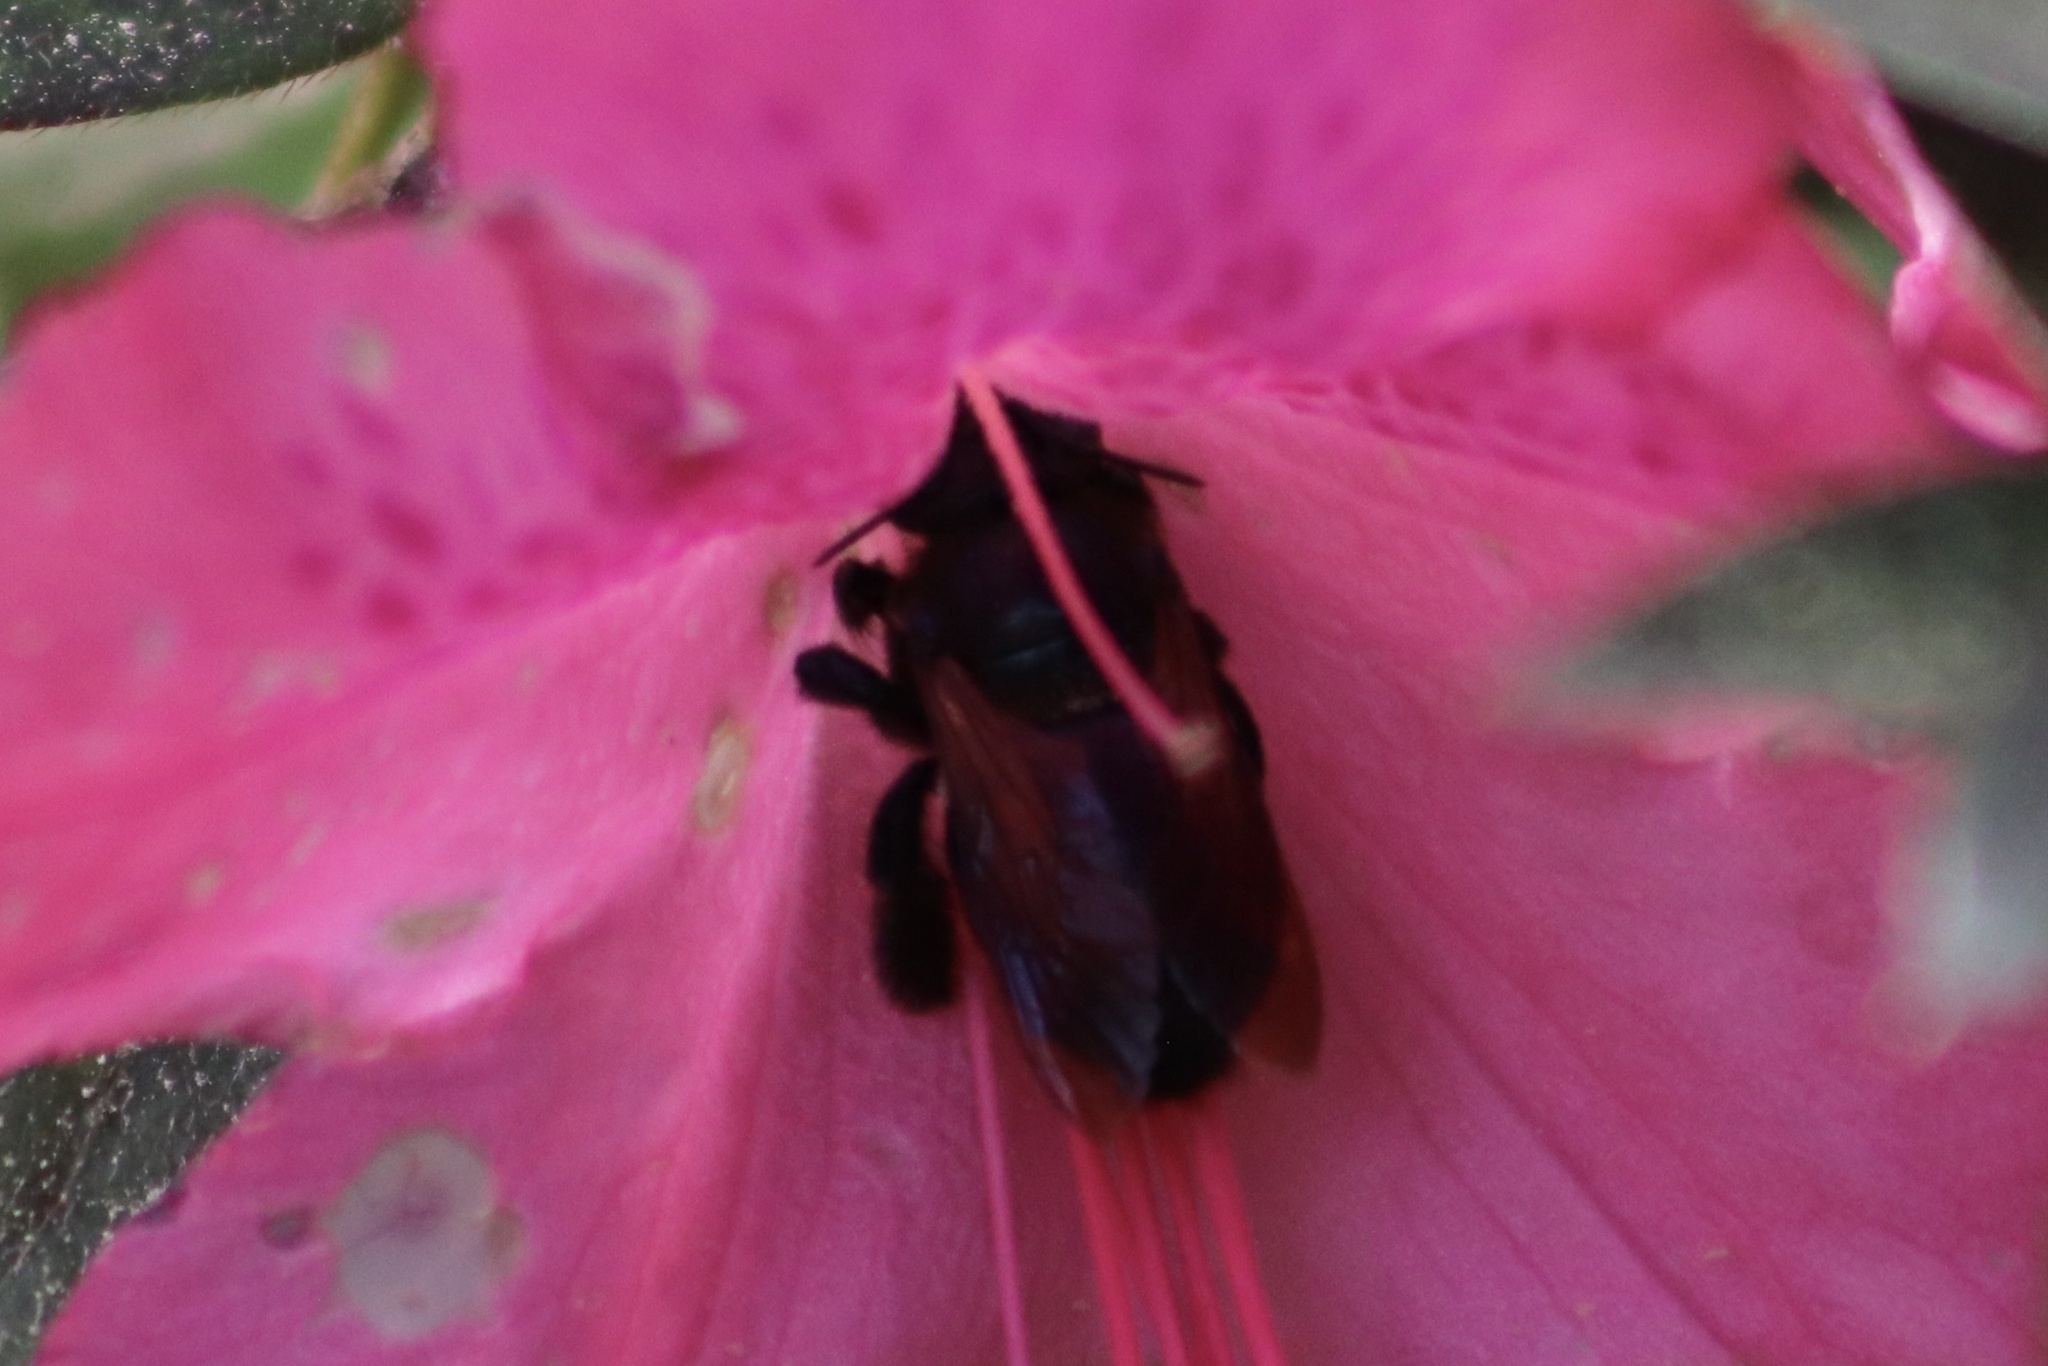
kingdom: Animalia
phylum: Arthropoda
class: Insecta
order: Hymenoptera
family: Apidae
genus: Xylocopa
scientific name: Xylocopa micans
